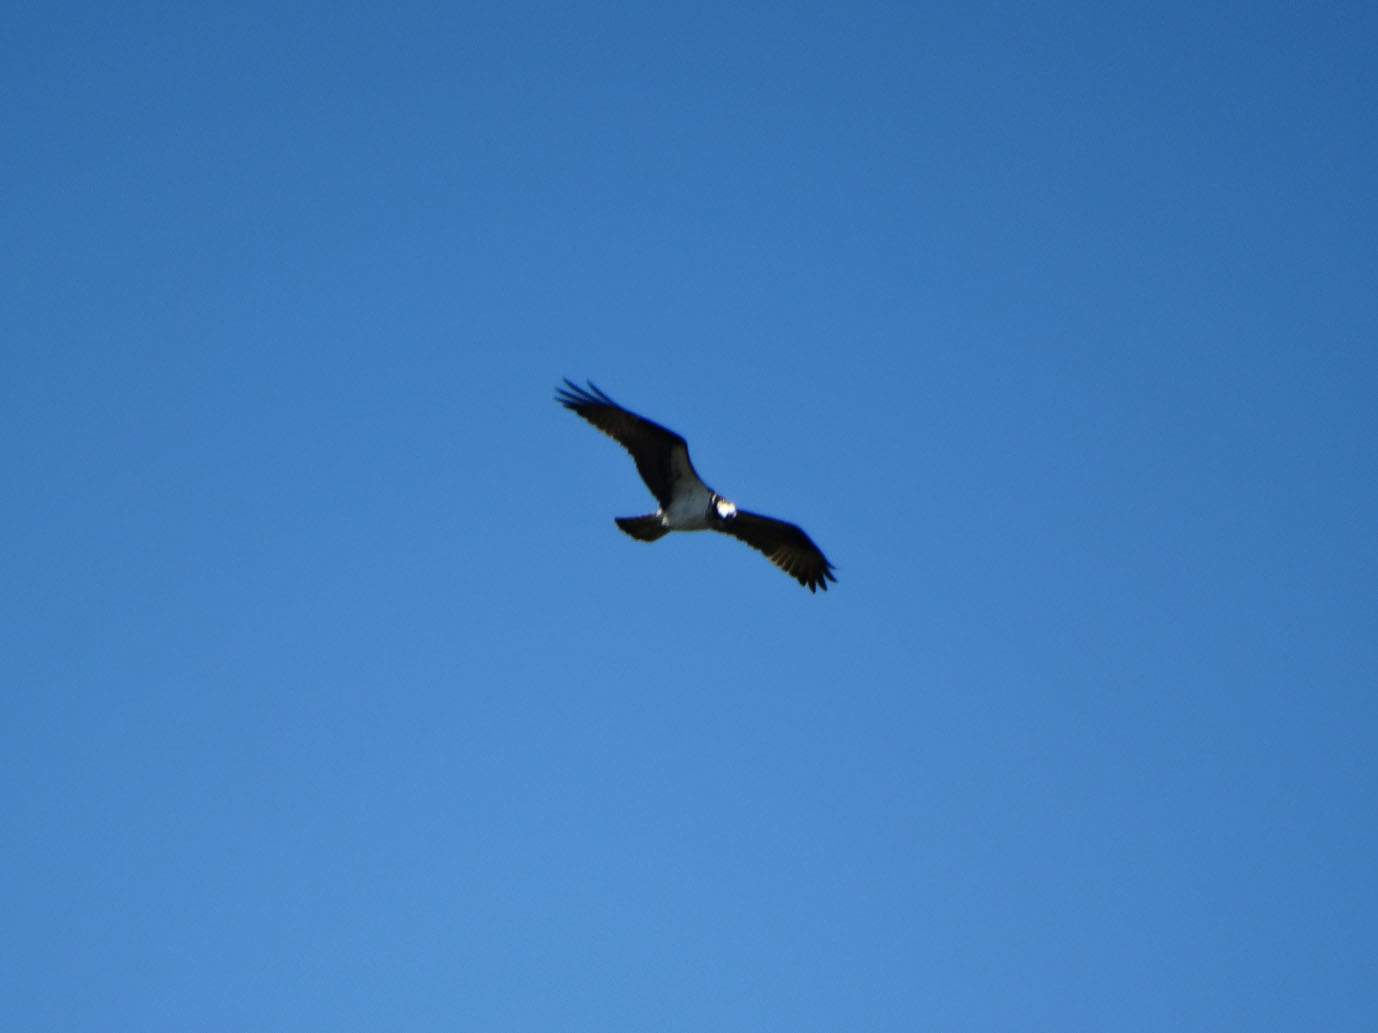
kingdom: Animalia
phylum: Chordata
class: Aves
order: Accipitriformes
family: Pandionidae
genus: Pandion
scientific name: Pandion haliaetus
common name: Osprey
